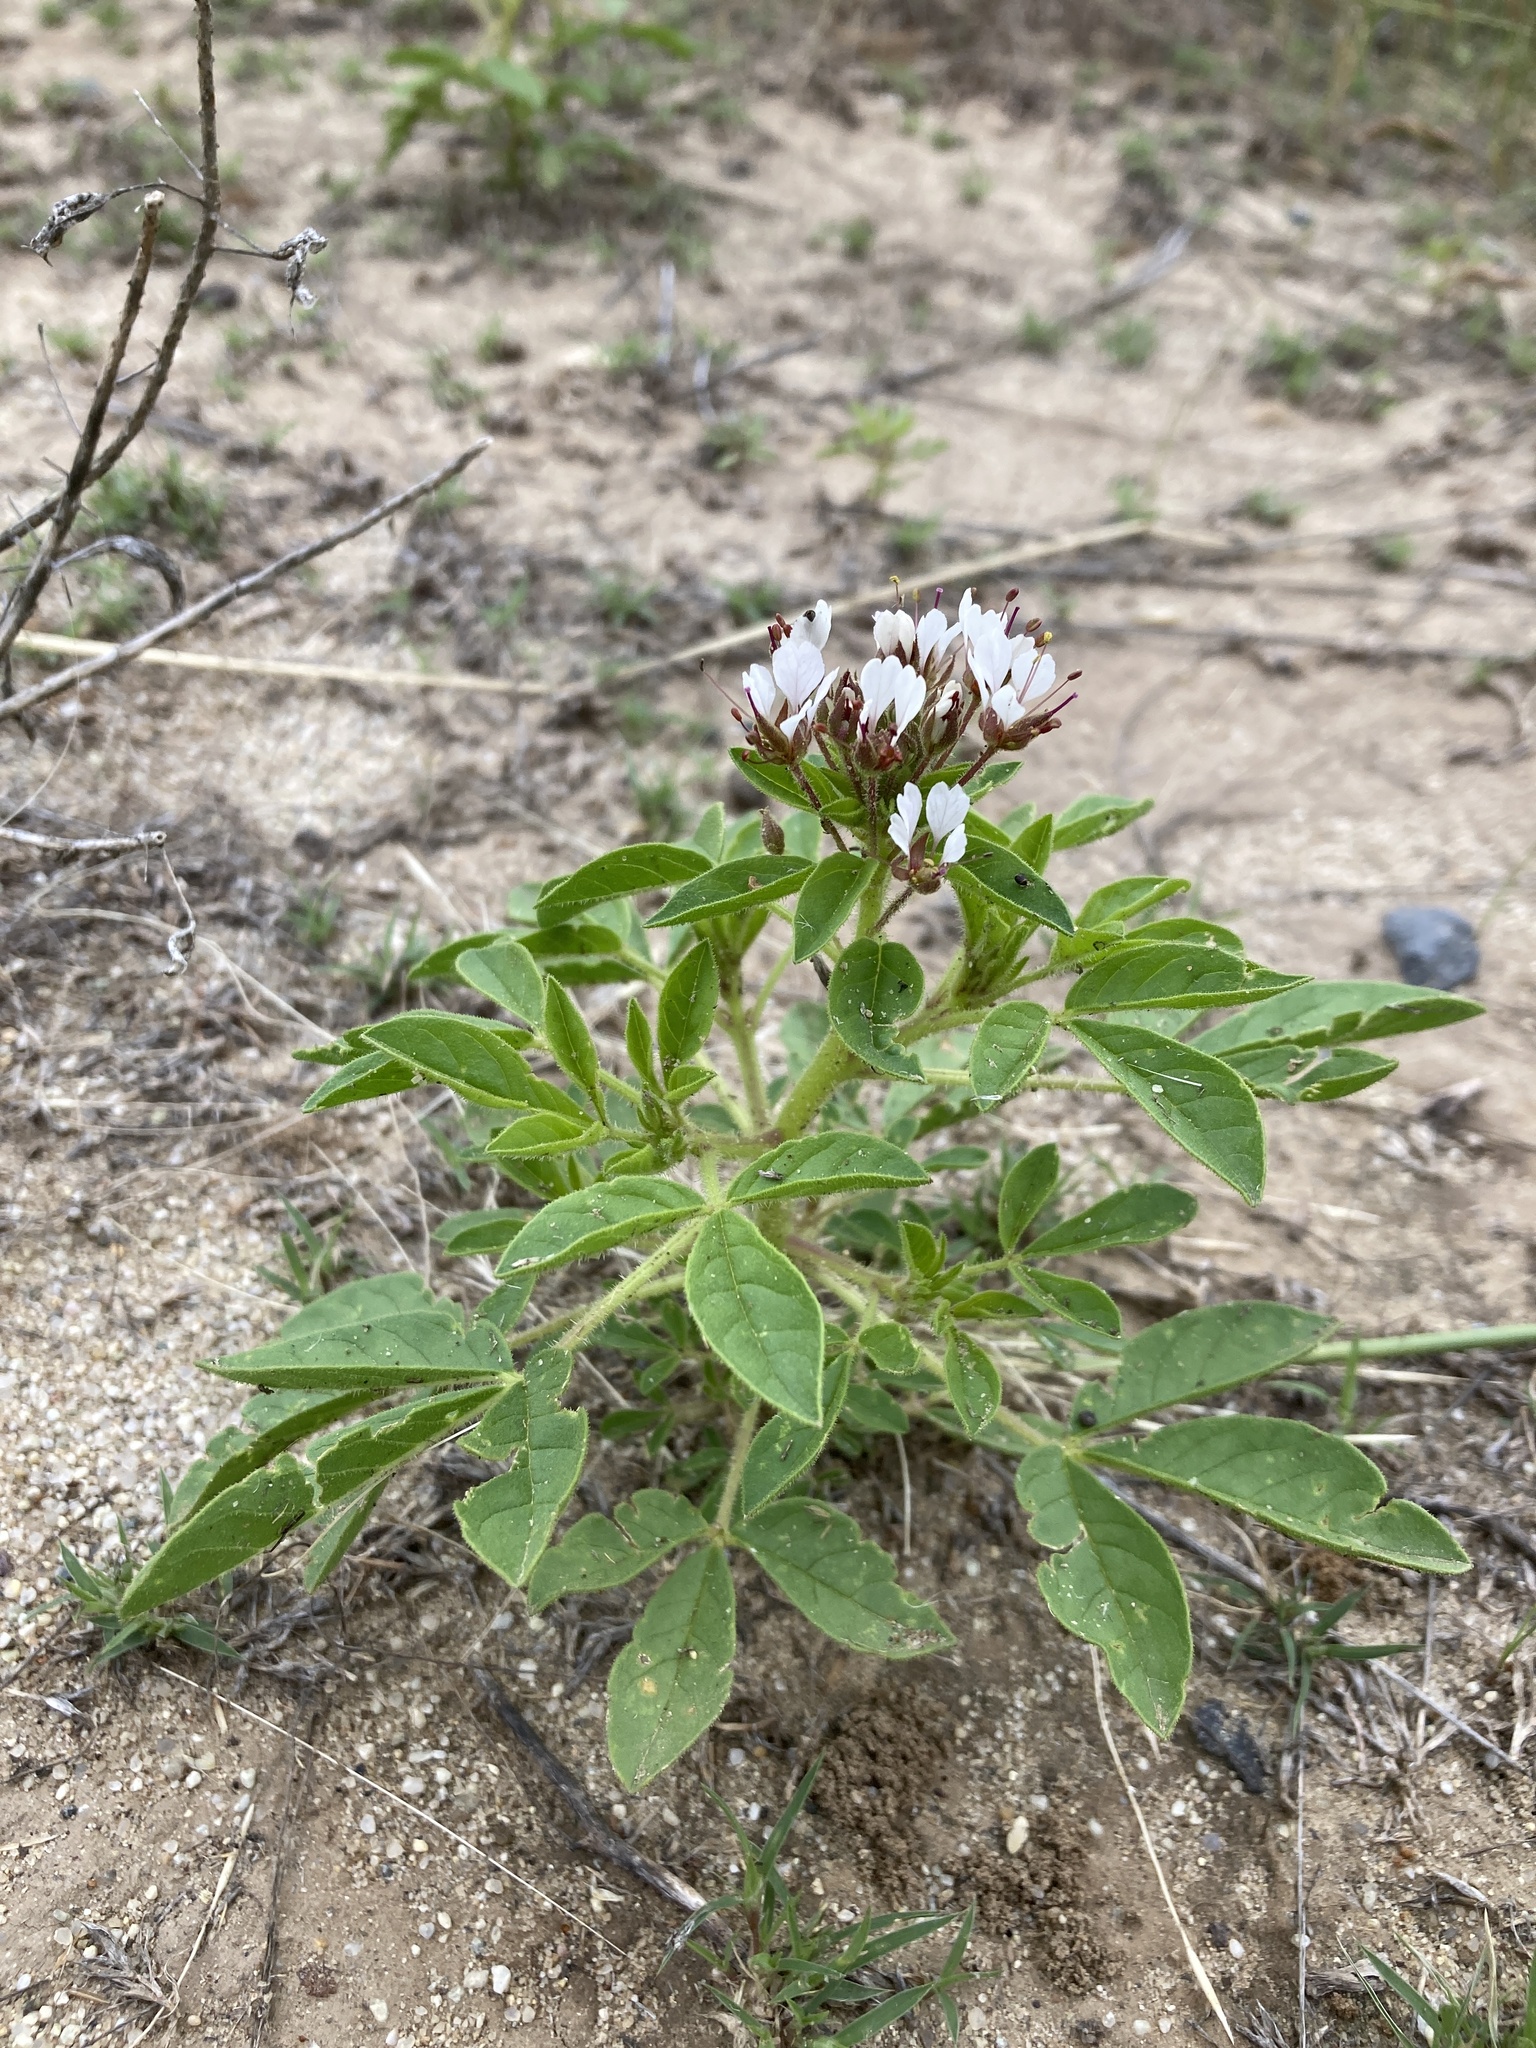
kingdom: Plantae
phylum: Tracheophyta
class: Magnoliopsida
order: Brassicales
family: Cleomaceae
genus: Polanisia
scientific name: Polanisia dodecandra
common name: Clammyweed
